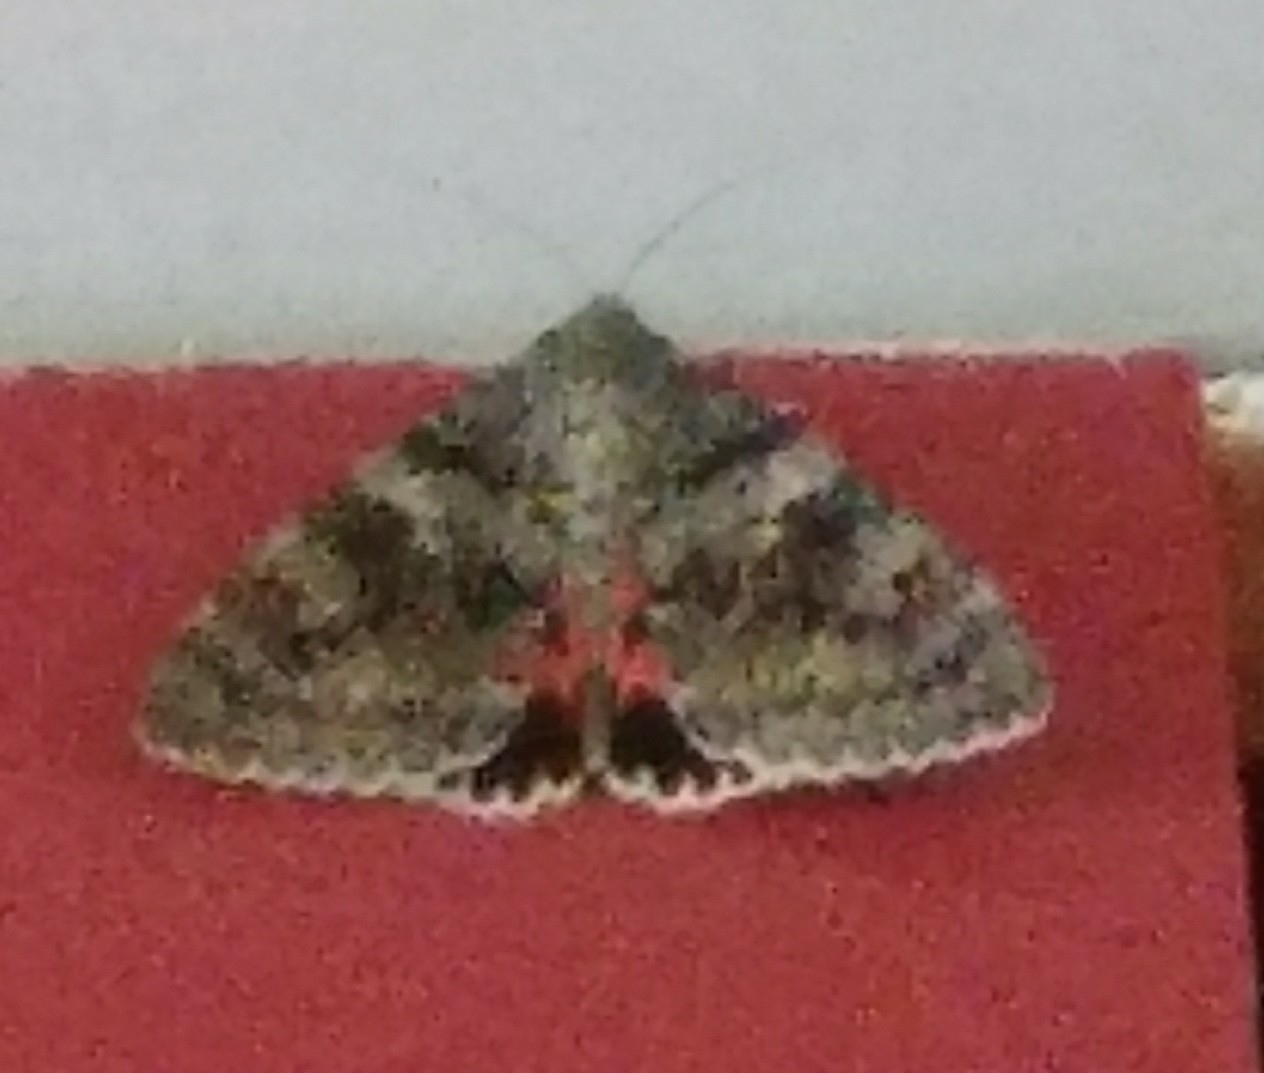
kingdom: Animalia
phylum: Arthropoda
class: Insecta
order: Lepidoptera
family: Erebidae
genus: Catocala
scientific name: Catocala elocata
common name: French red underwing
